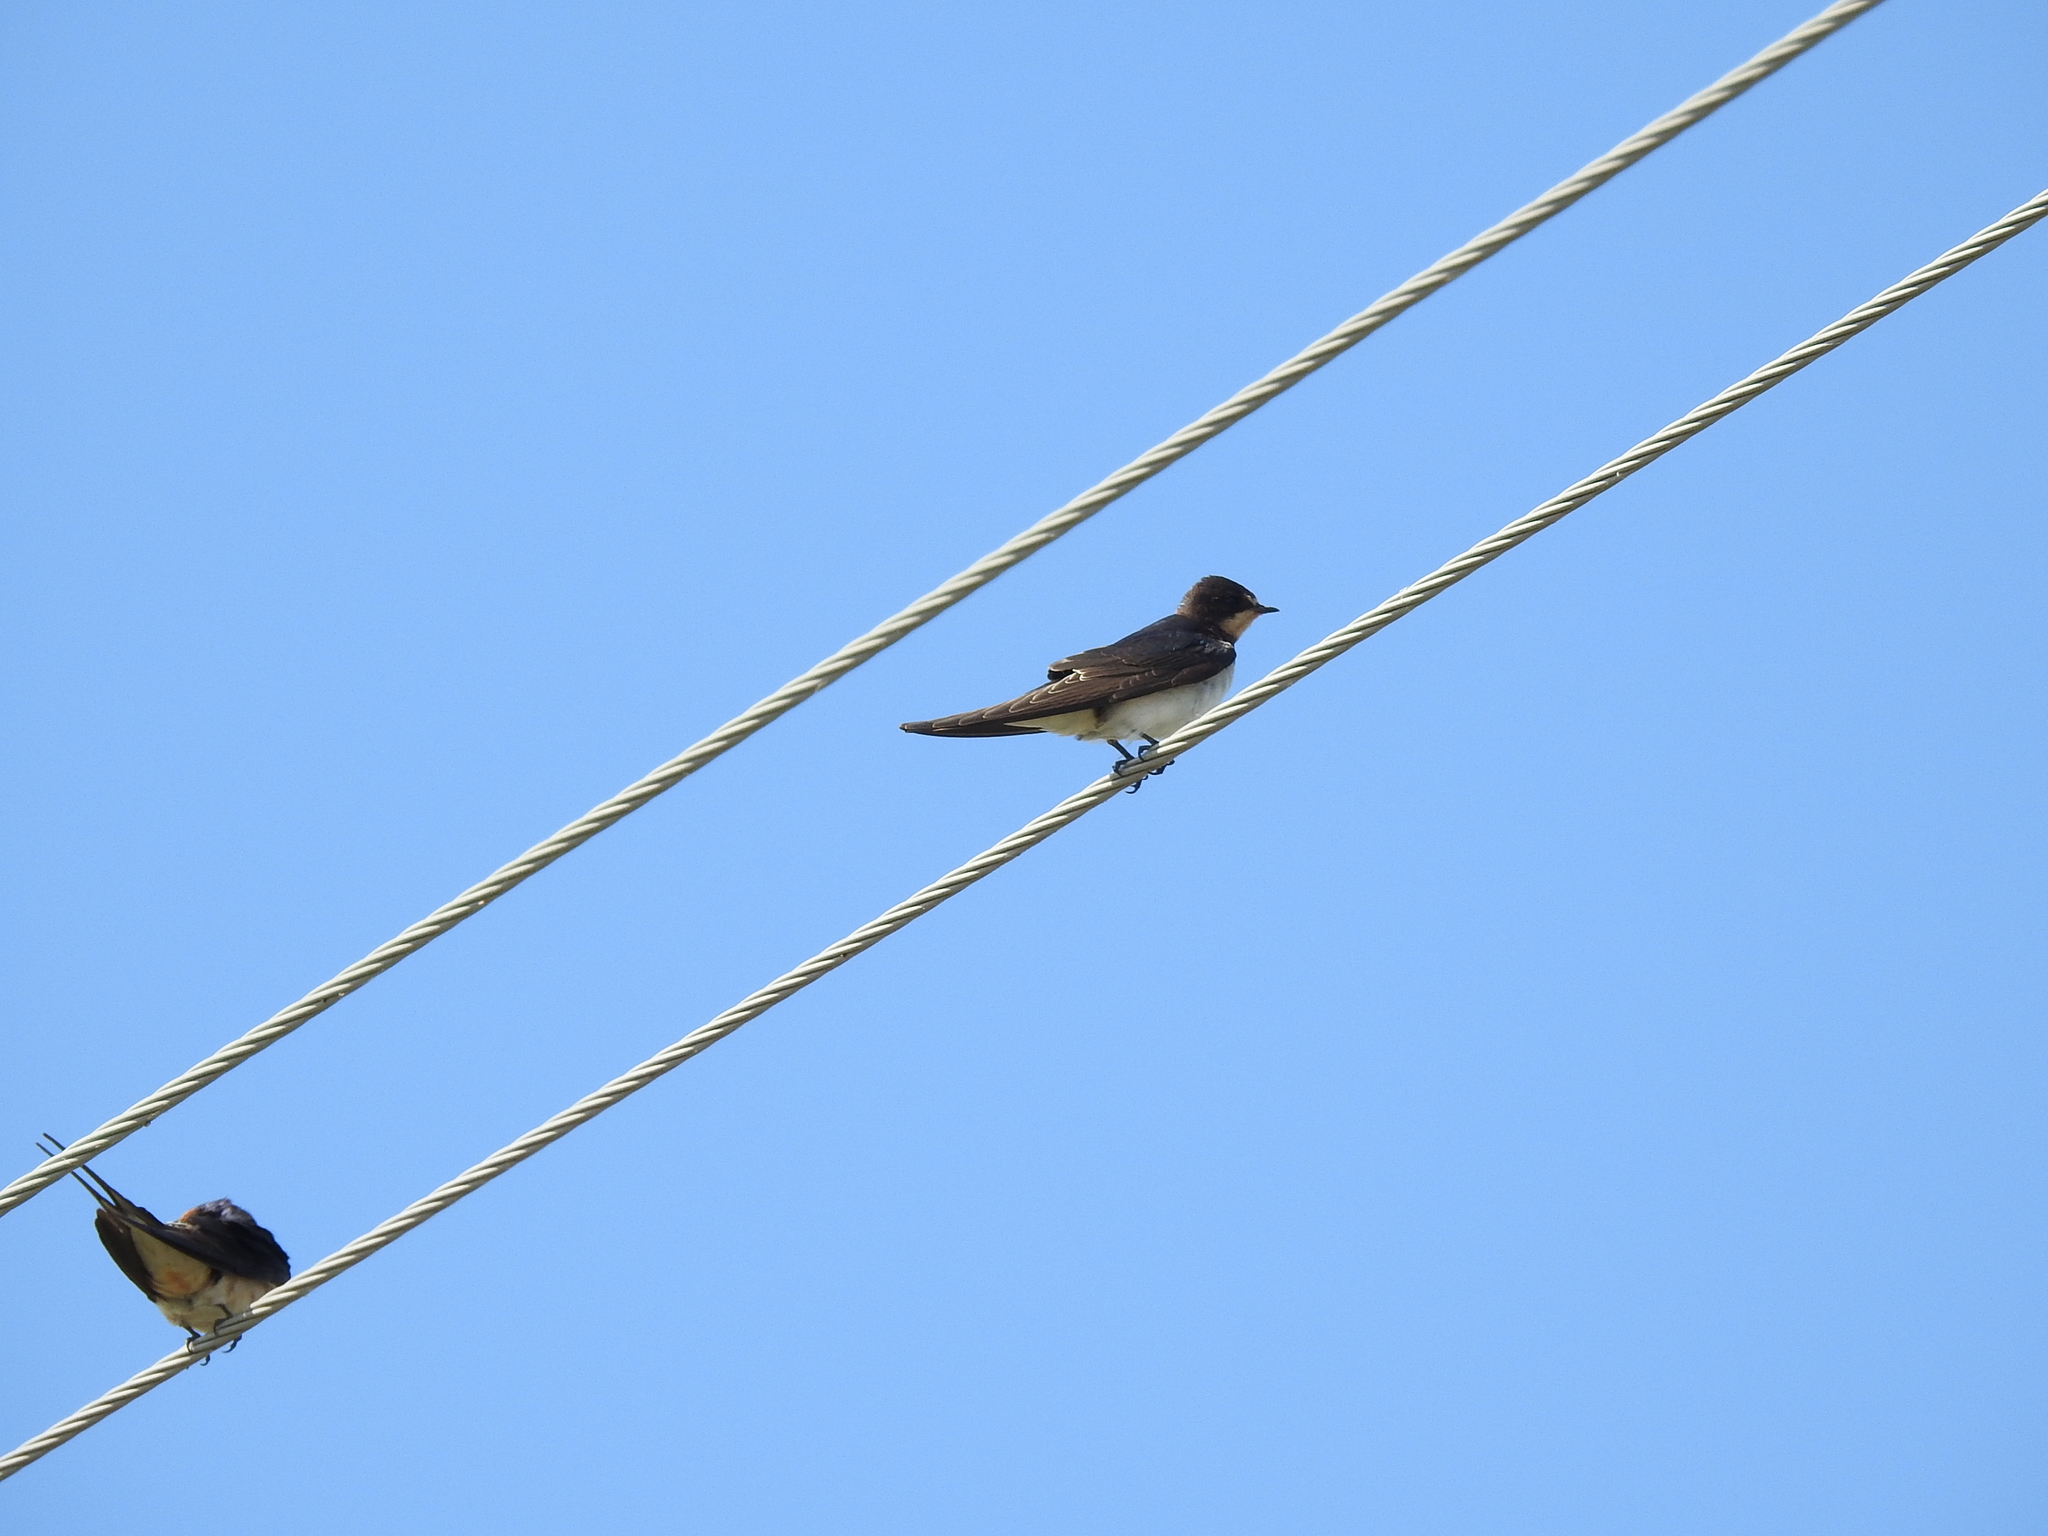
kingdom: Animalia
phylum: Chordata
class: Aves
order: Passeriformes
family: Hirundinidae
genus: Hirundo
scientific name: Hirundo rustica
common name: Barn swallow
